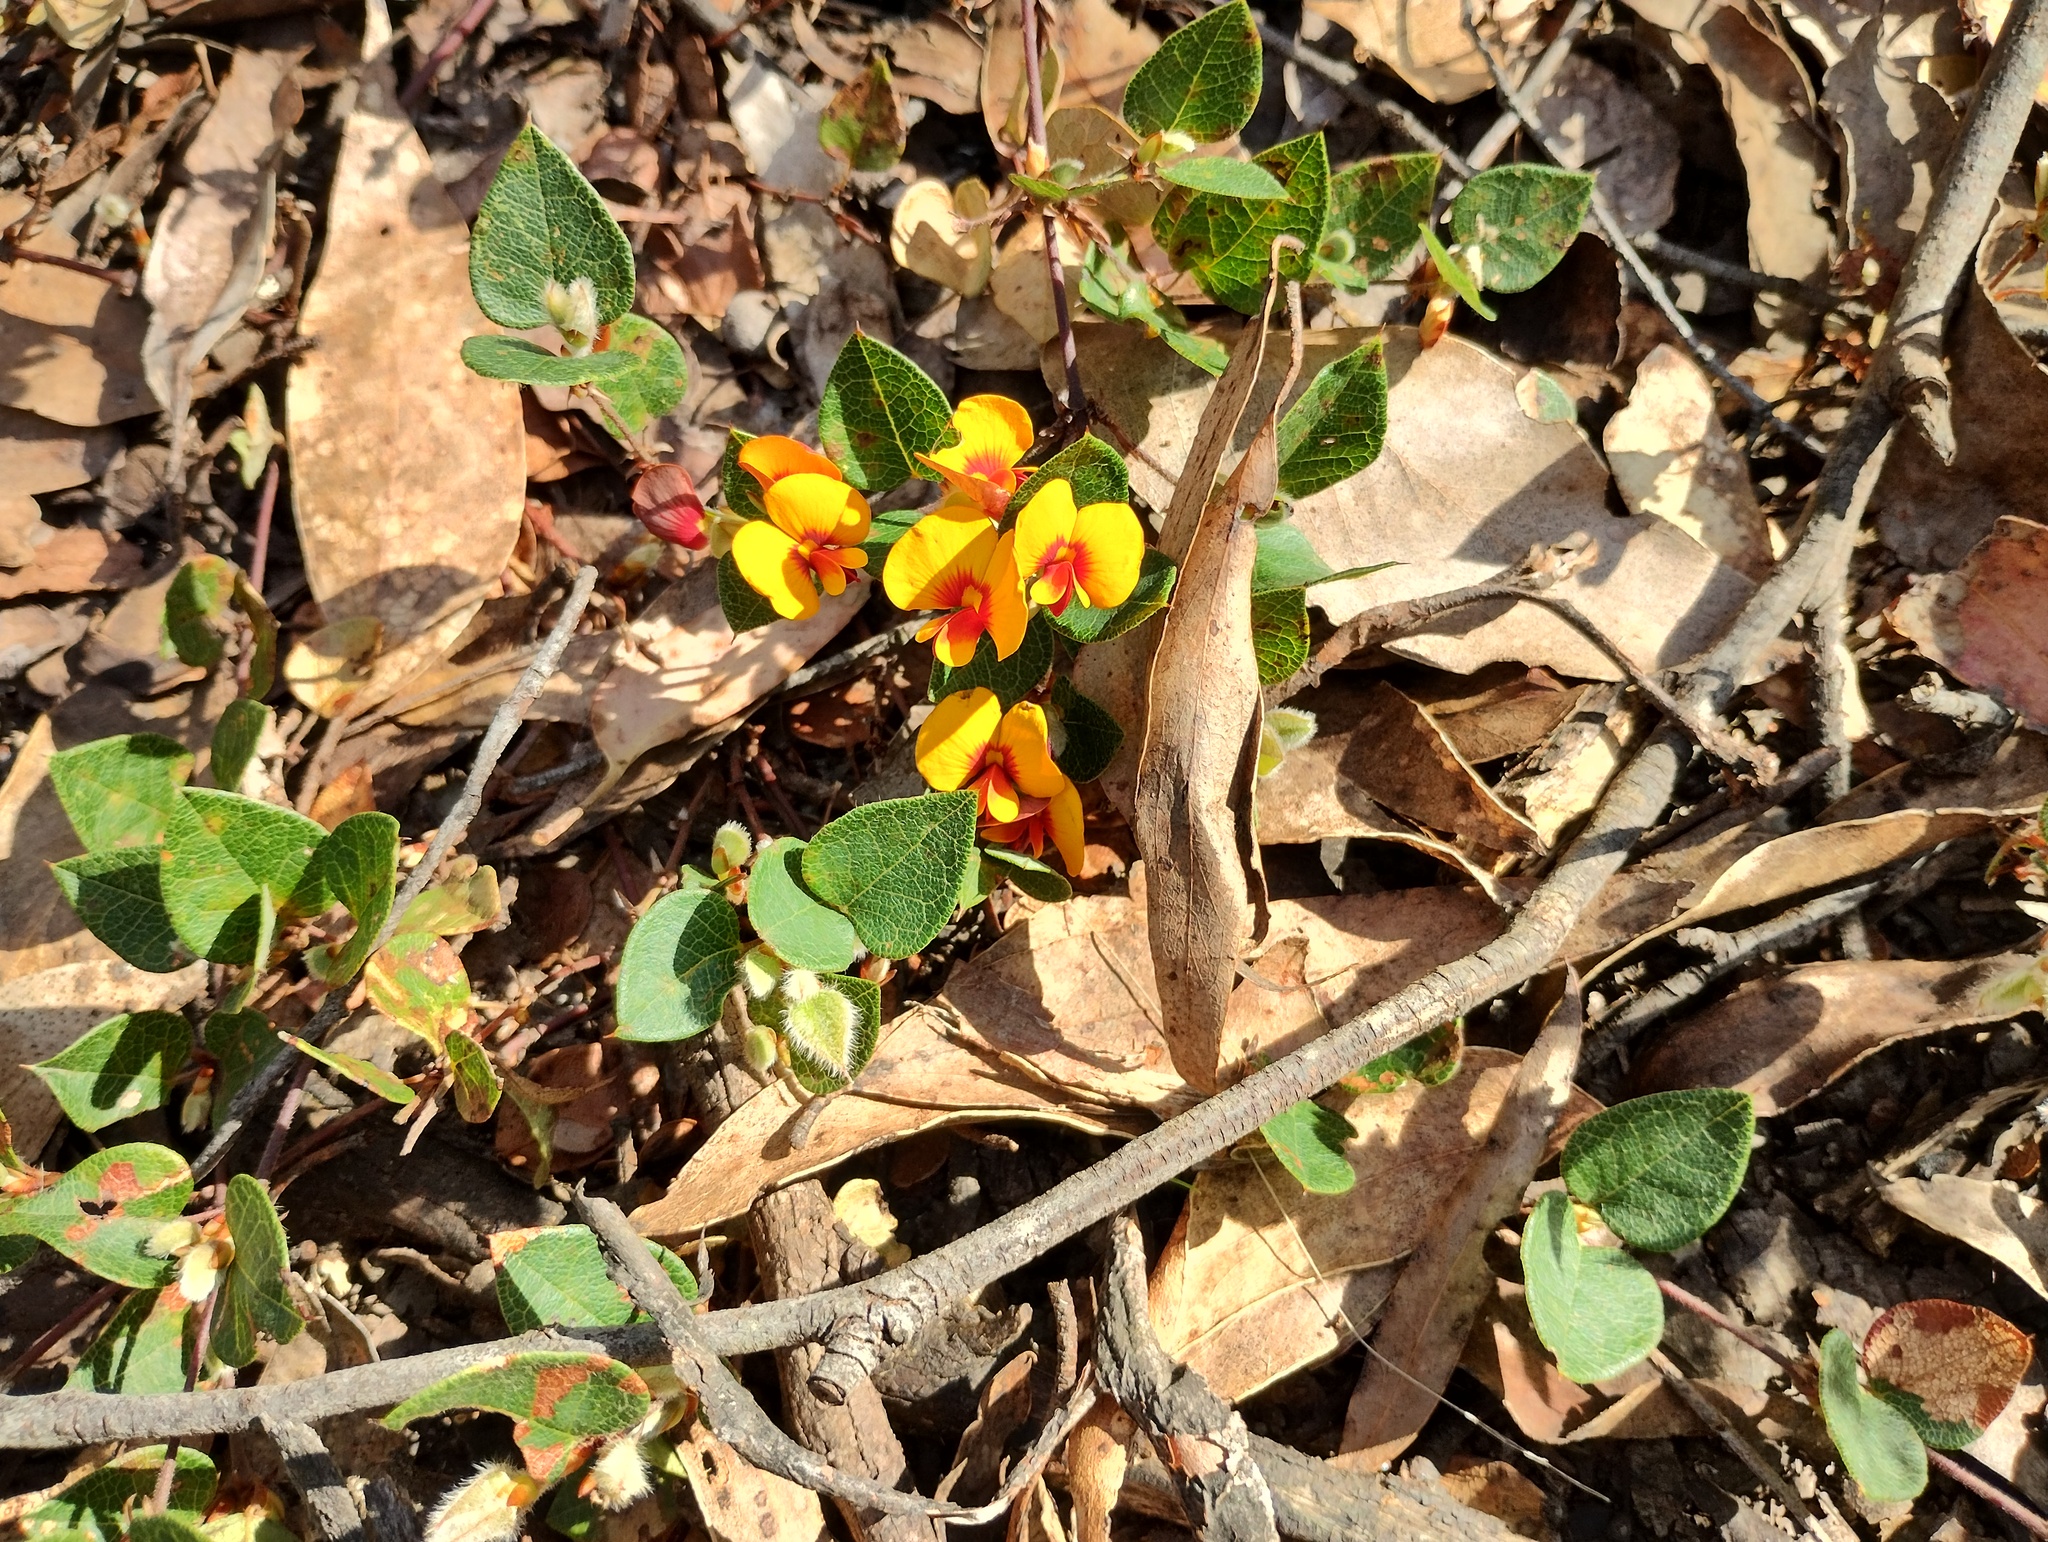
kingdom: Plantae
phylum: Tracheophyta
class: Magnoliopsida
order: Fabales
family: Fabaceae
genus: Platylobium
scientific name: Platylobium montanum
